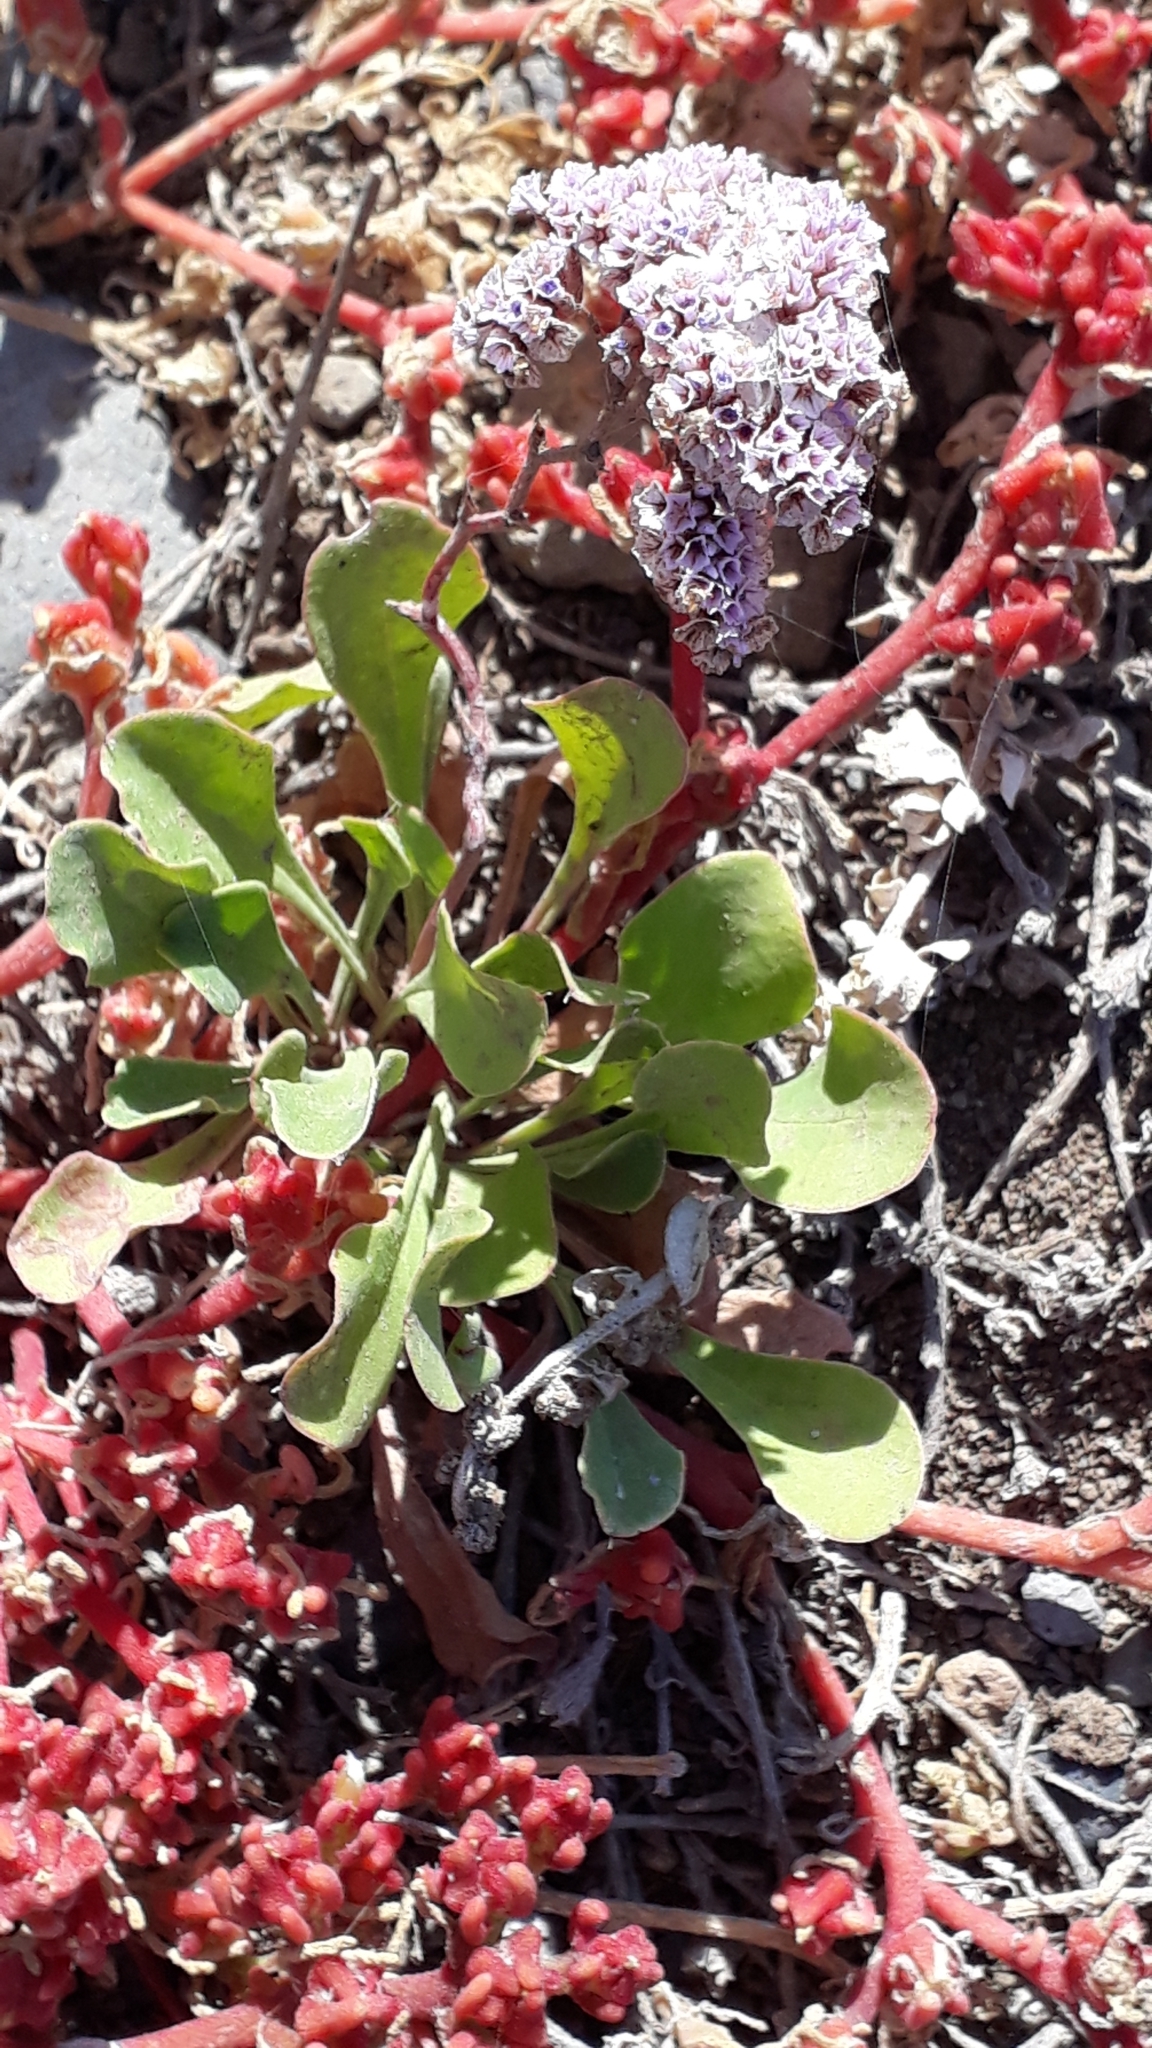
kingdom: Plantae
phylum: Tracheophyta
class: Magnoliopsida
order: Caryophyllales
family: Plumbaginaceae
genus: Limonium
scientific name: Limonium pectinatum
